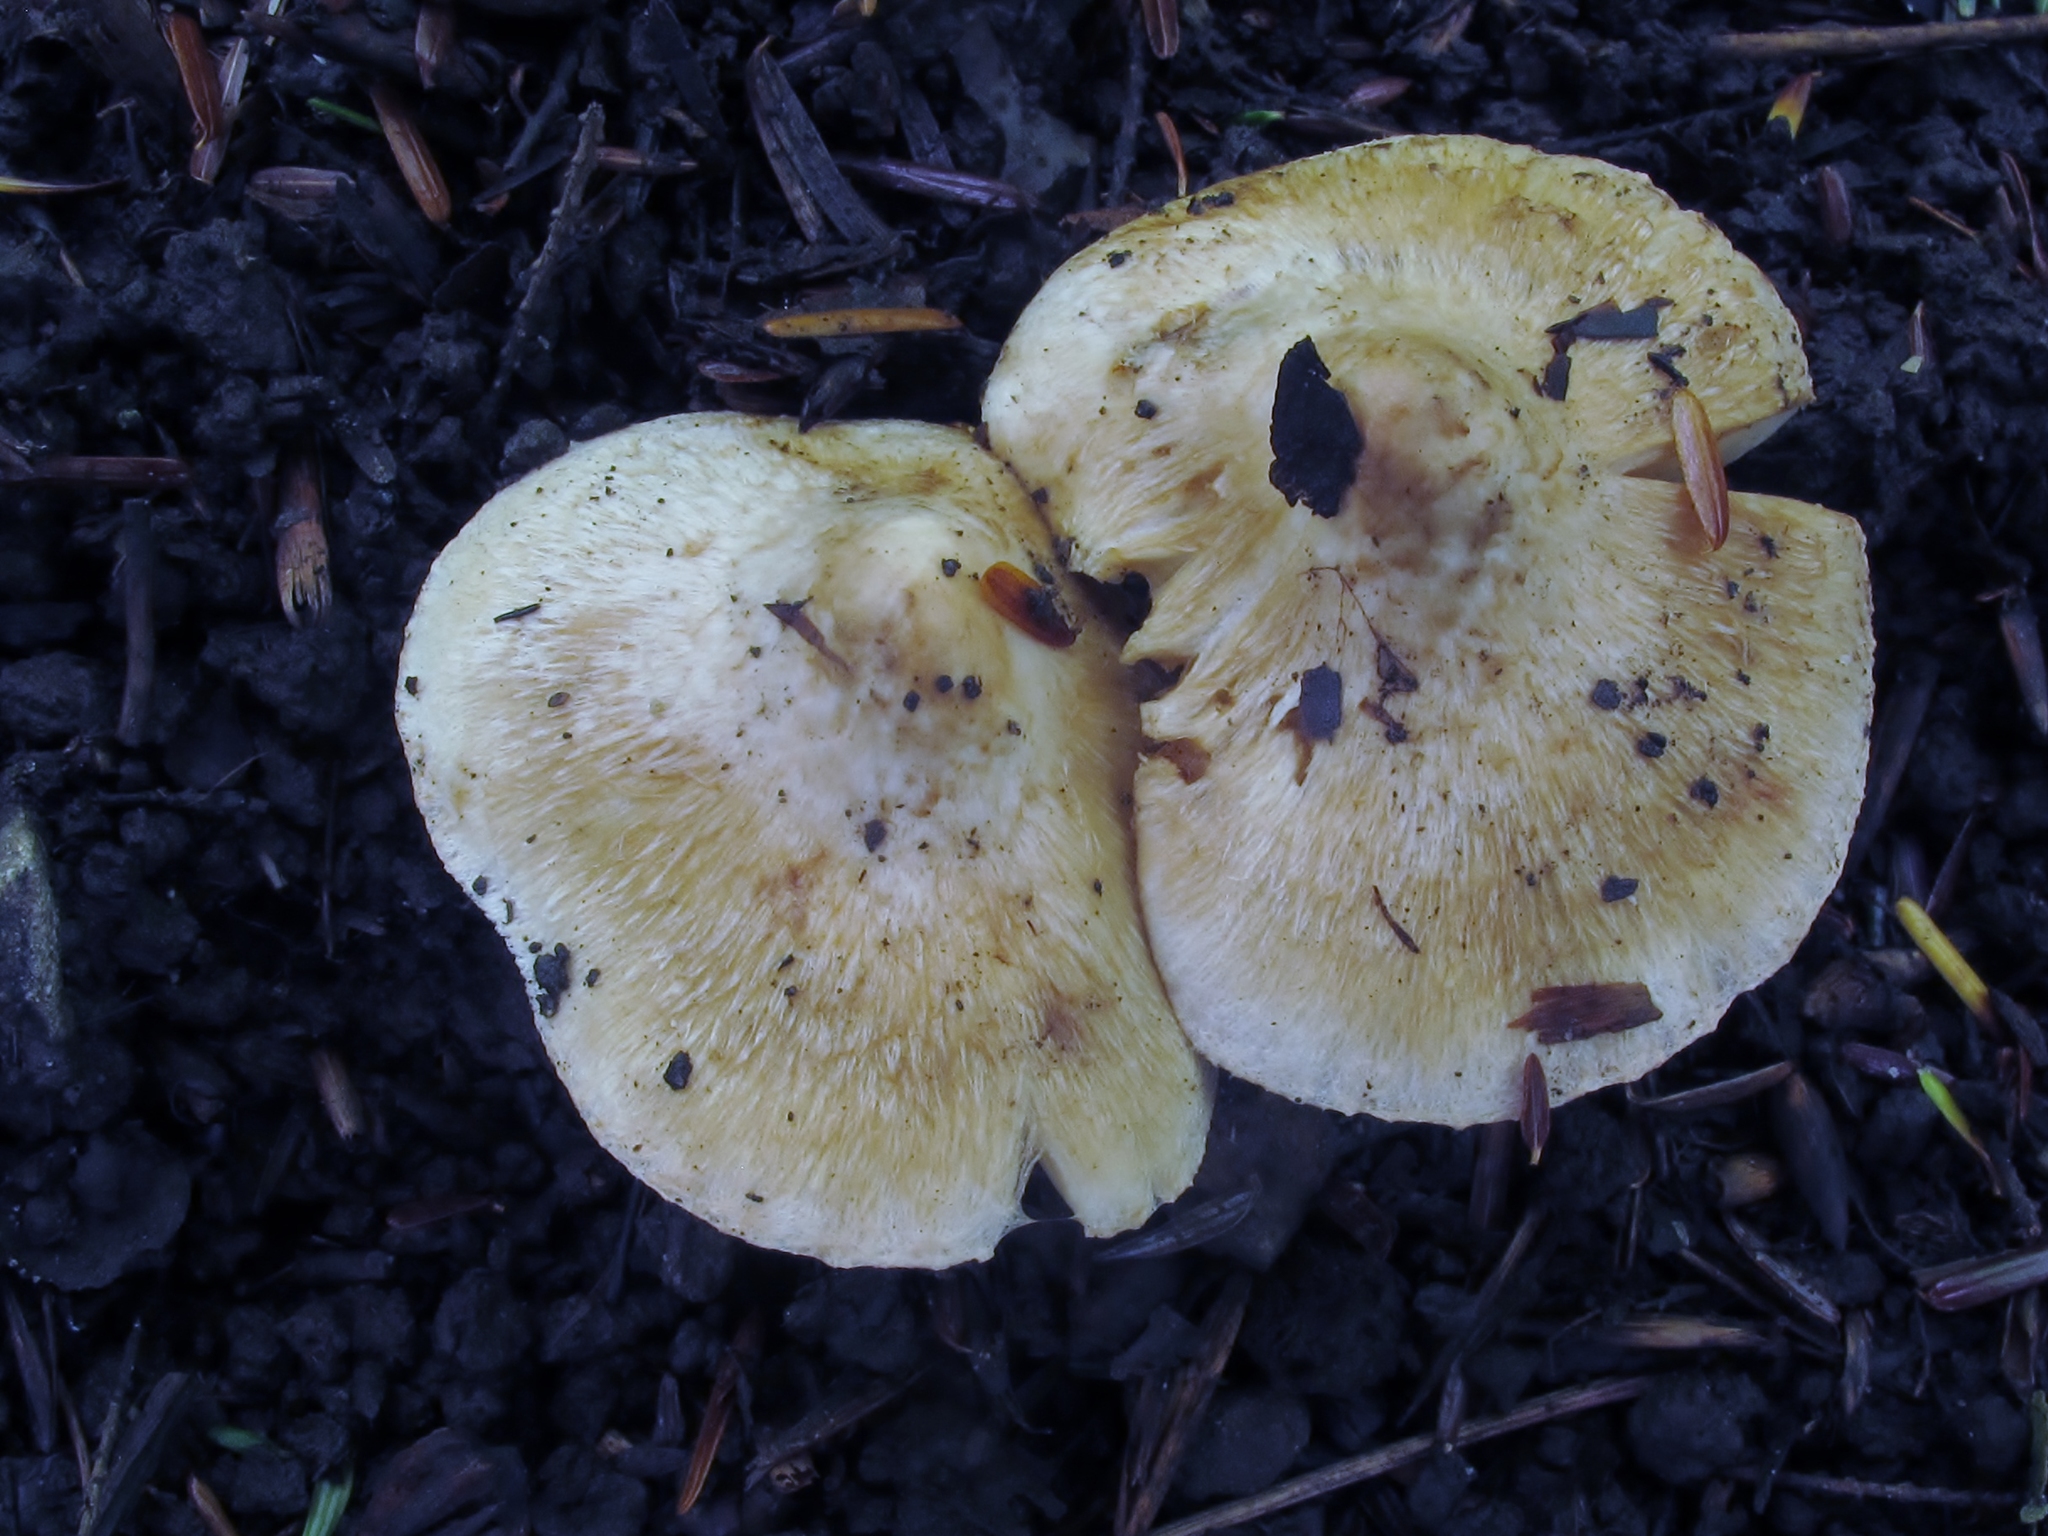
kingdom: Fungi
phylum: Basidiomycota
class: Agaricomycetes
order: Agaricales
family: Inocybaceae
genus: Inocybe
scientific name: Inocybe fraudans
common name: Pear fibrecap
